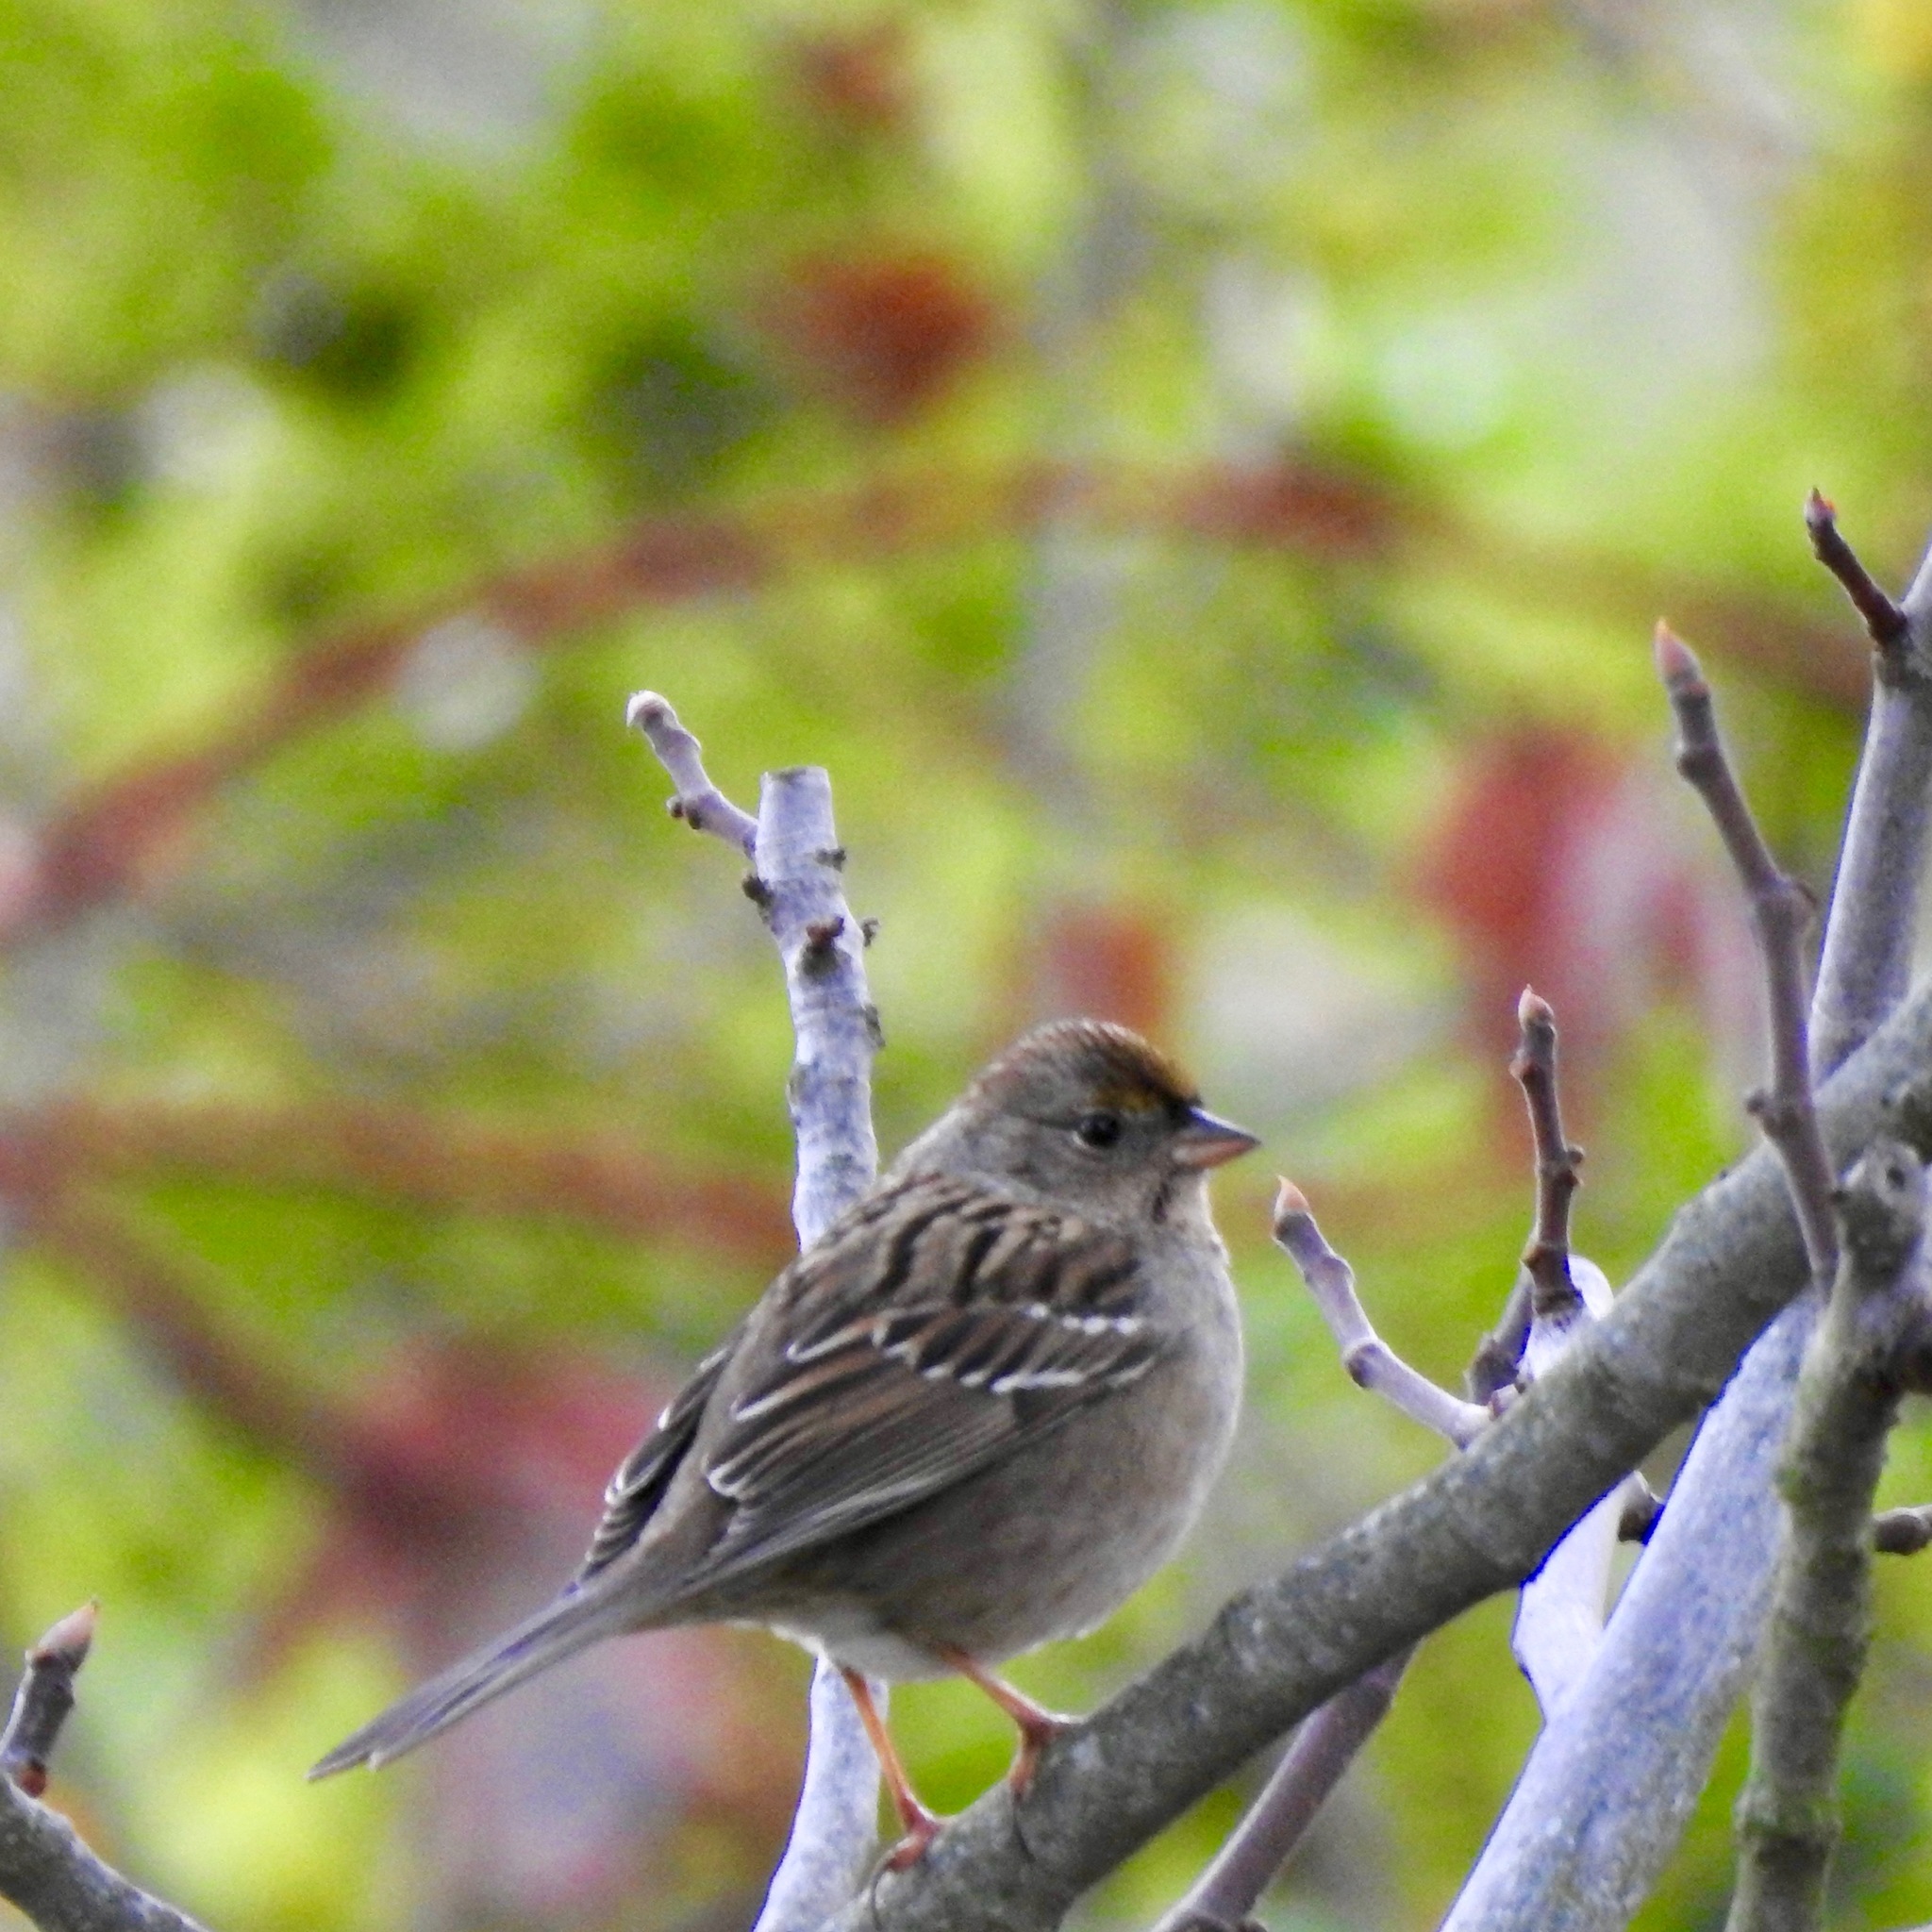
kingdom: Animalia
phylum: Chordata
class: Aves
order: Passeriformes
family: Passerellidae
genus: Zonotrichia
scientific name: Zonotrichia atricapilla
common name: Golden-crowned sparrow
